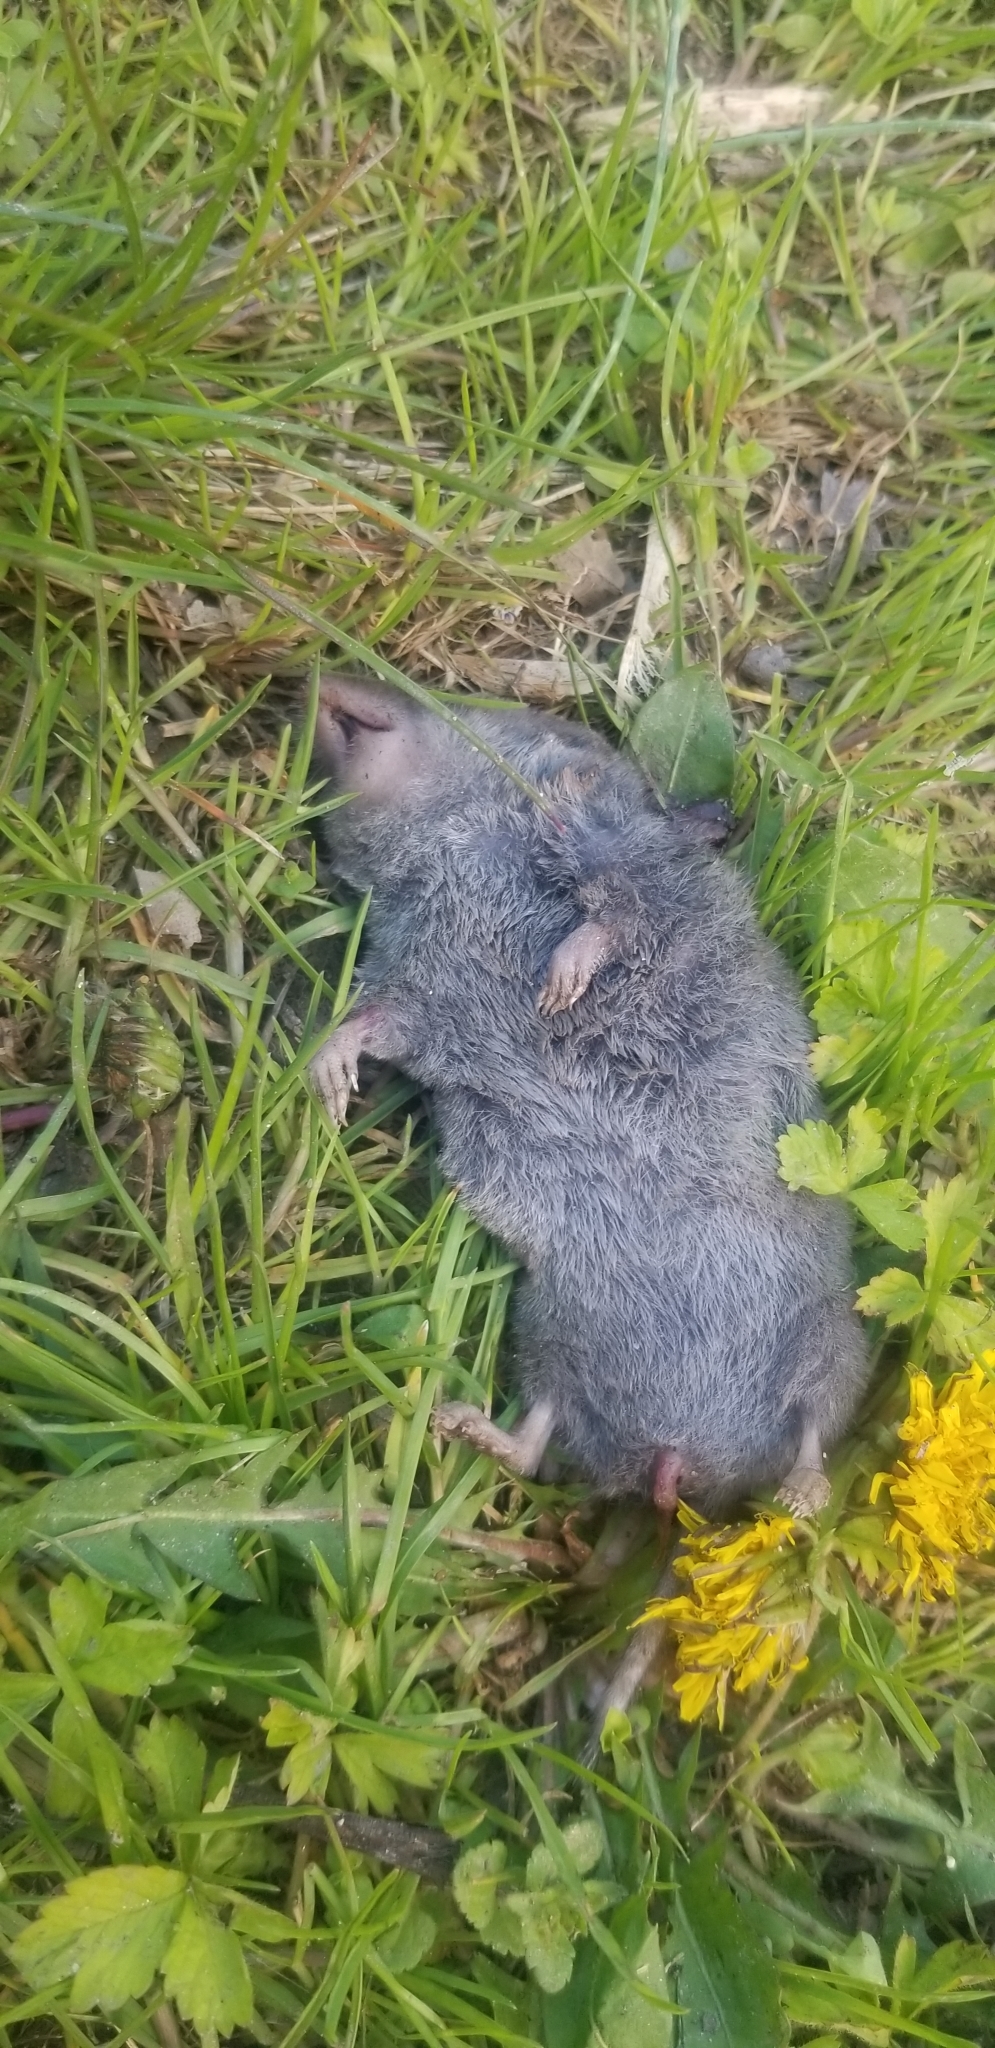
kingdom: Animalia
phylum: Chordata
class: Mammalia
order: Soricomorpha
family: Soricidae
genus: Blarina
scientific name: Blarina brevicauda
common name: Northern short-tailed shrew
